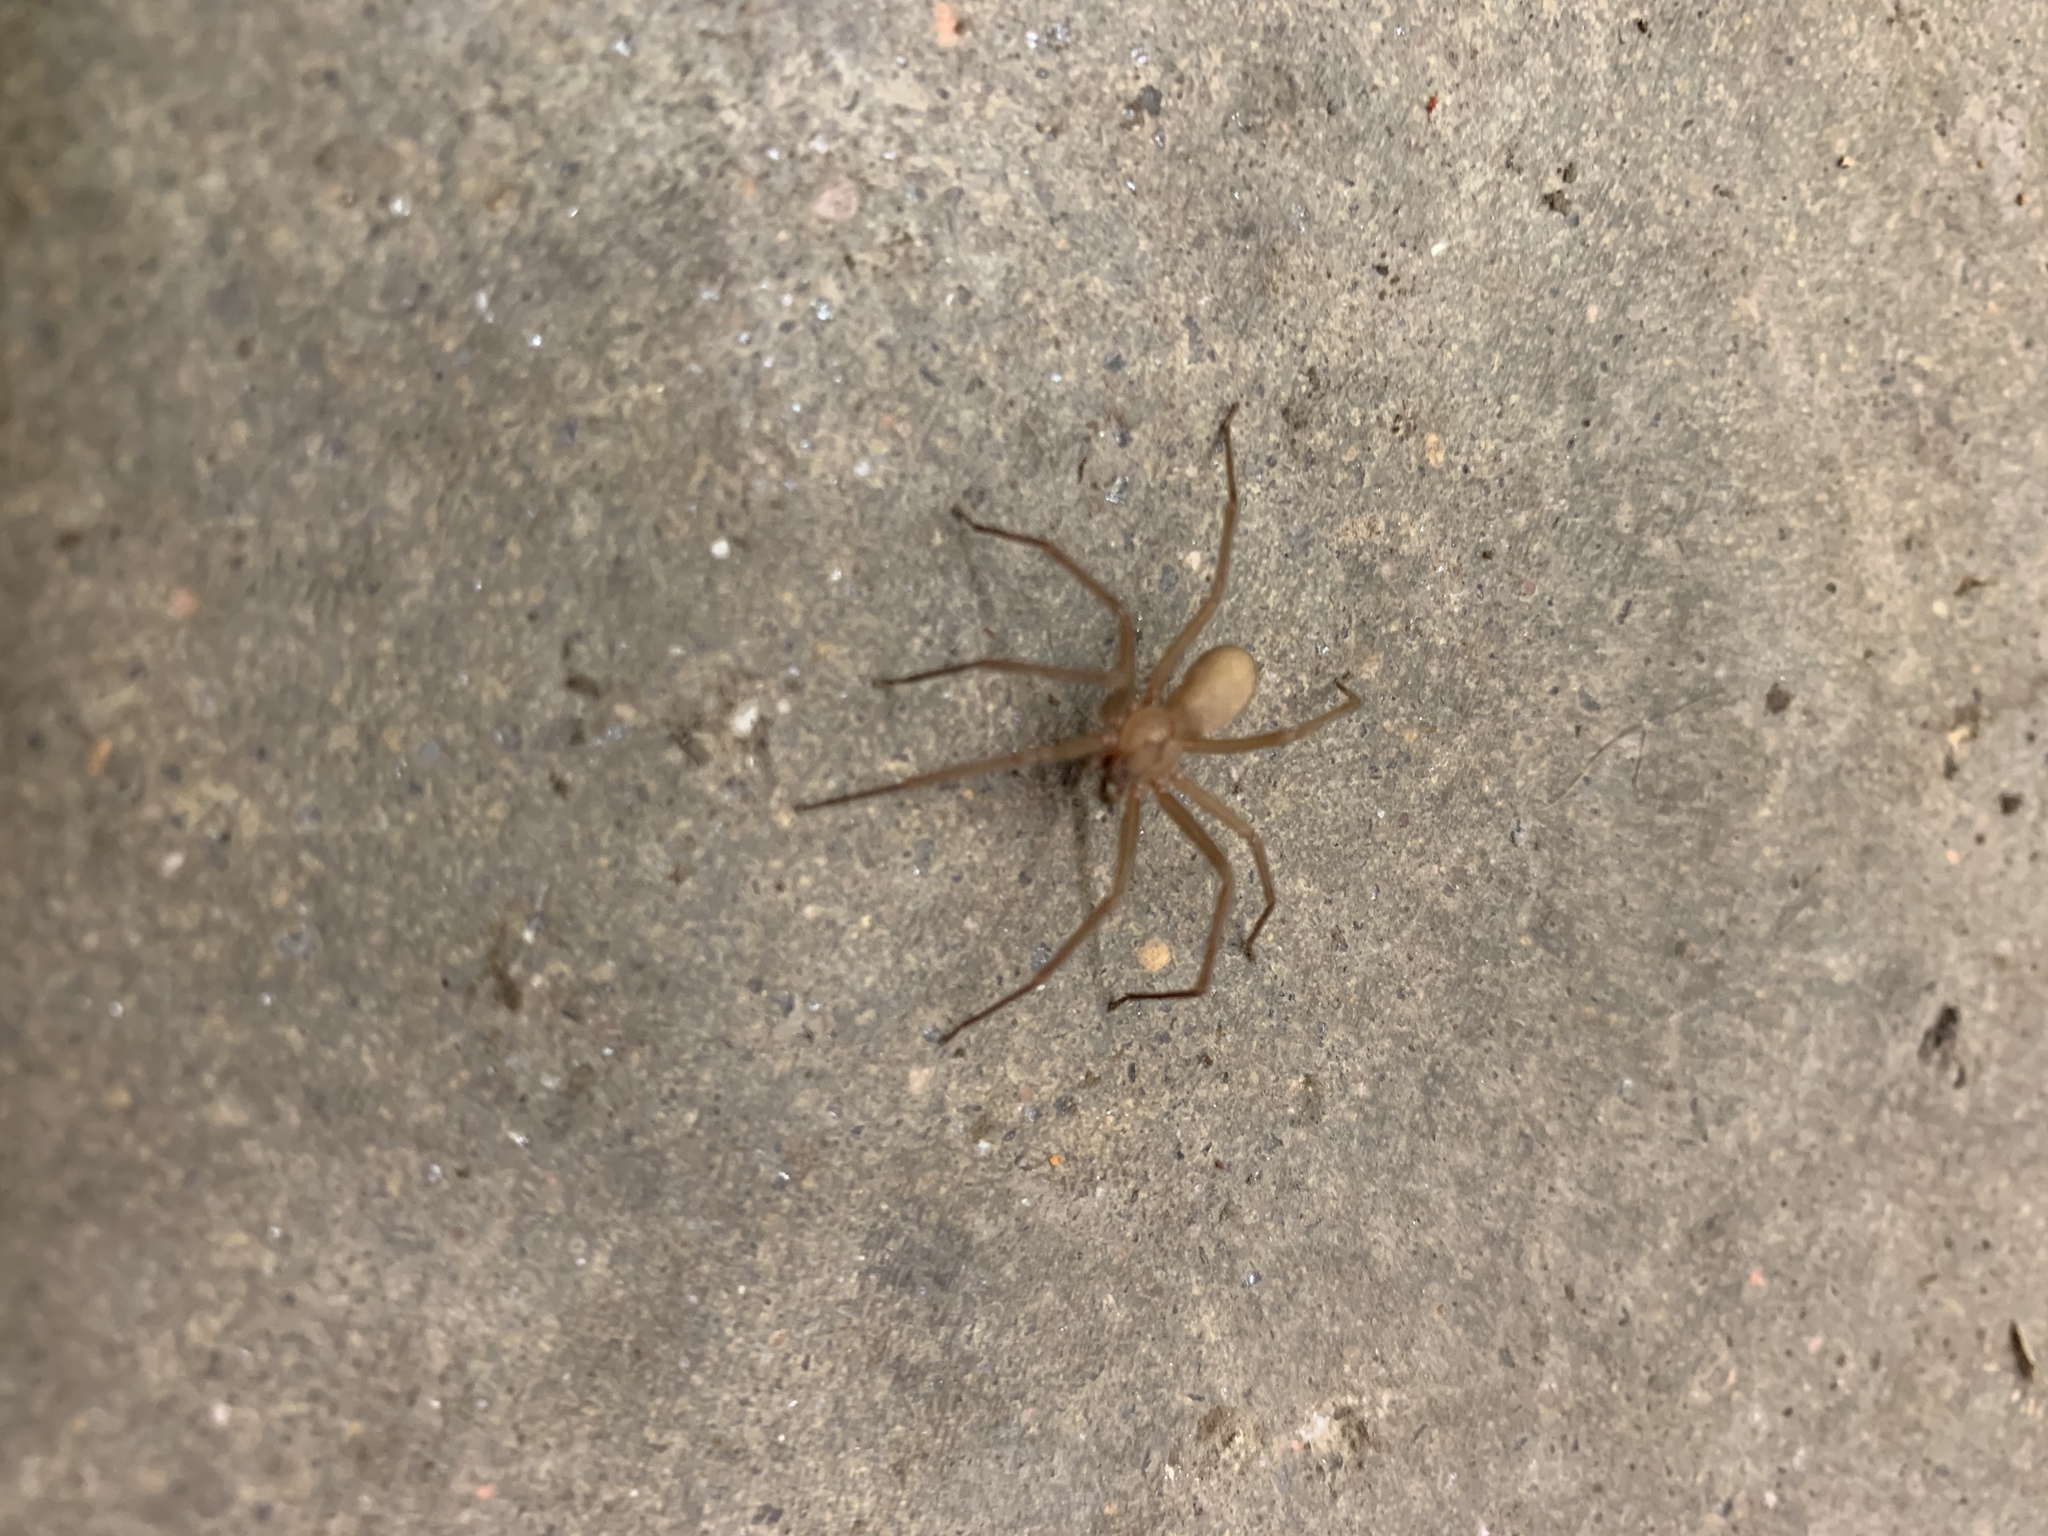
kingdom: Animalia
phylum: Arthropoda
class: Arachnida
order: Araneae
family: Sicariidae
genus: Loxosceles
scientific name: Loxosceles reclusa
